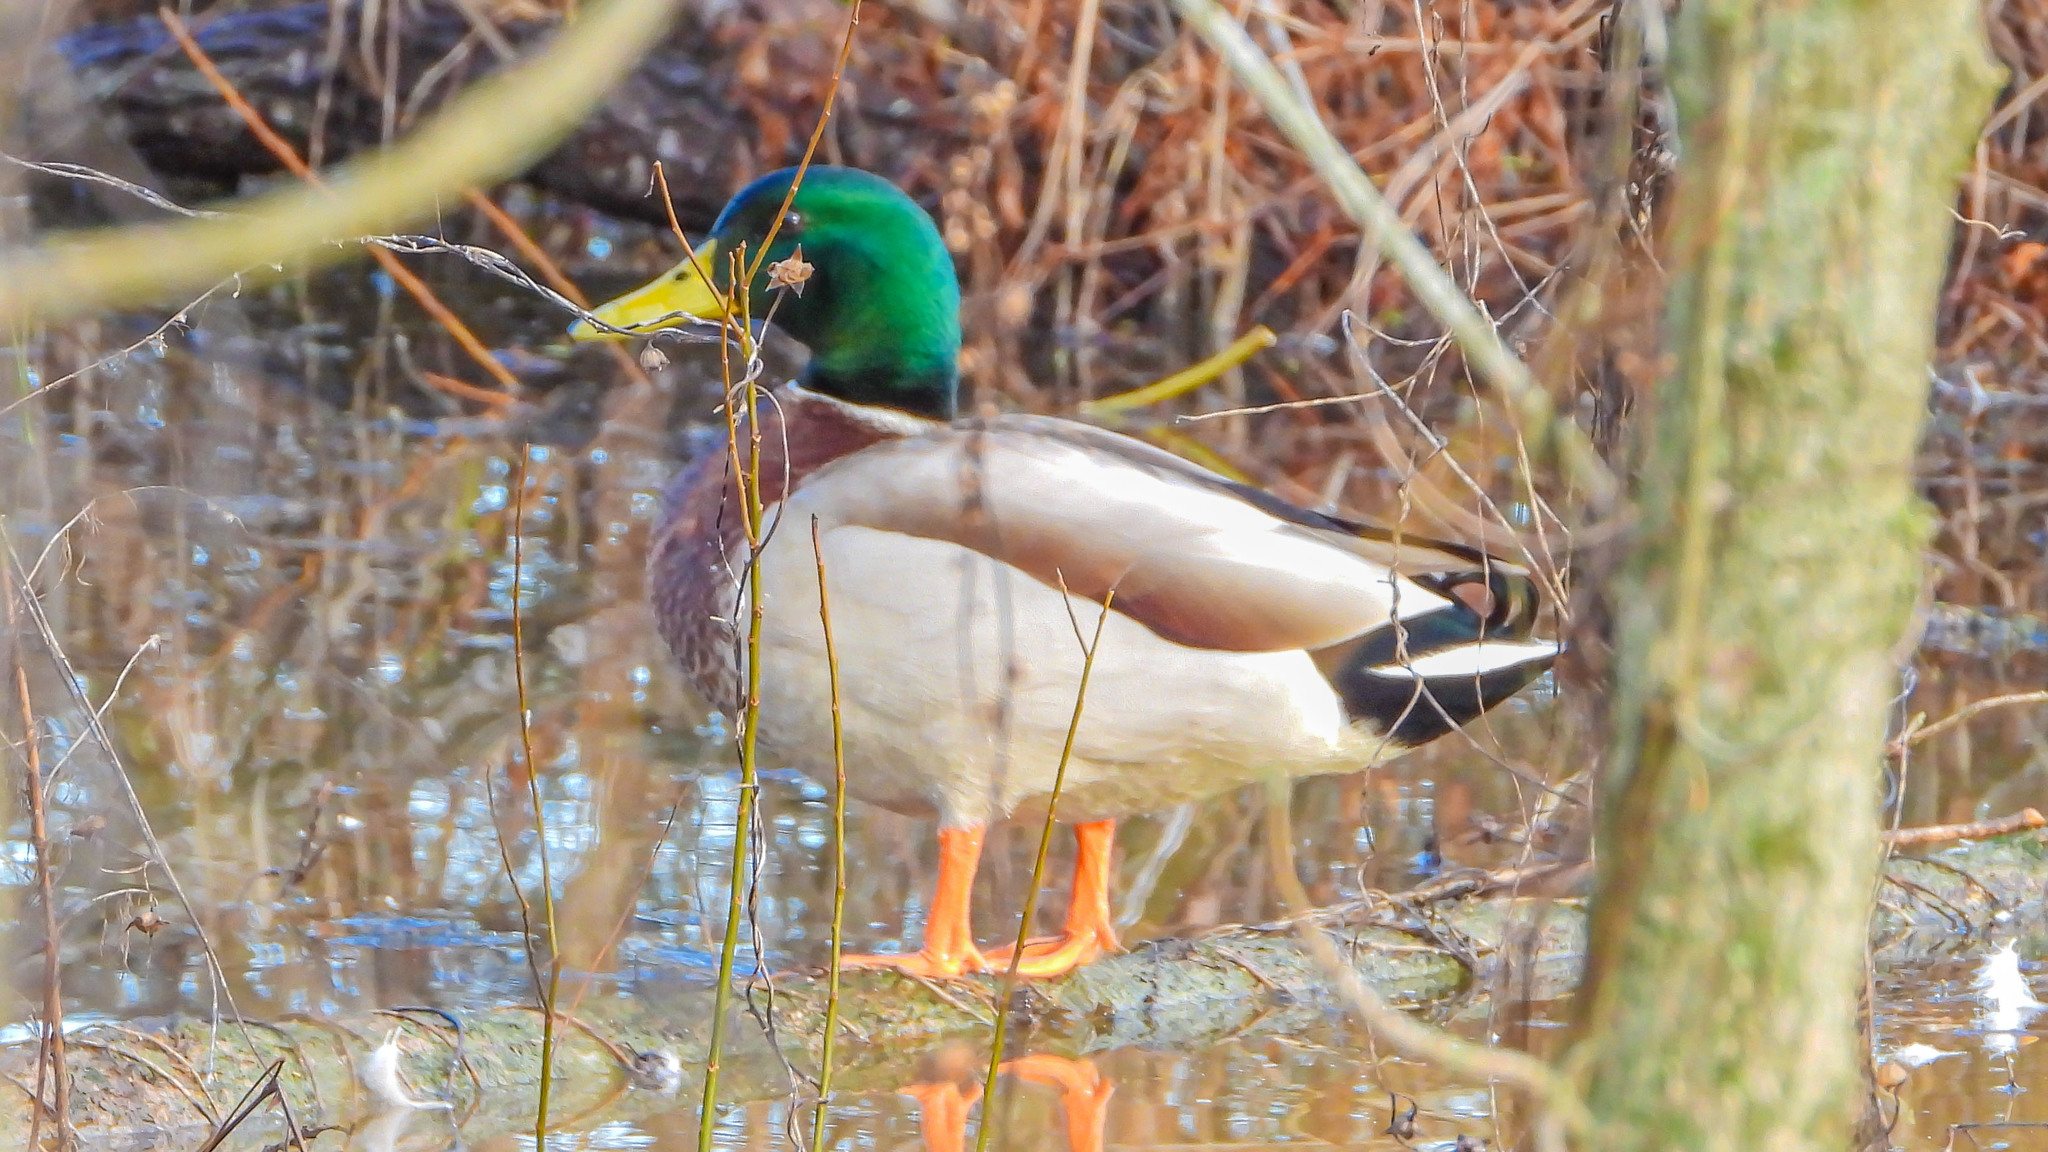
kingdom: Animalia
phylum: Chordata
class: Aves
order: Anseriformes
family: Anatidae
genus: Anas
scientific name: Anas platyrhynchos
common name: Mallard
